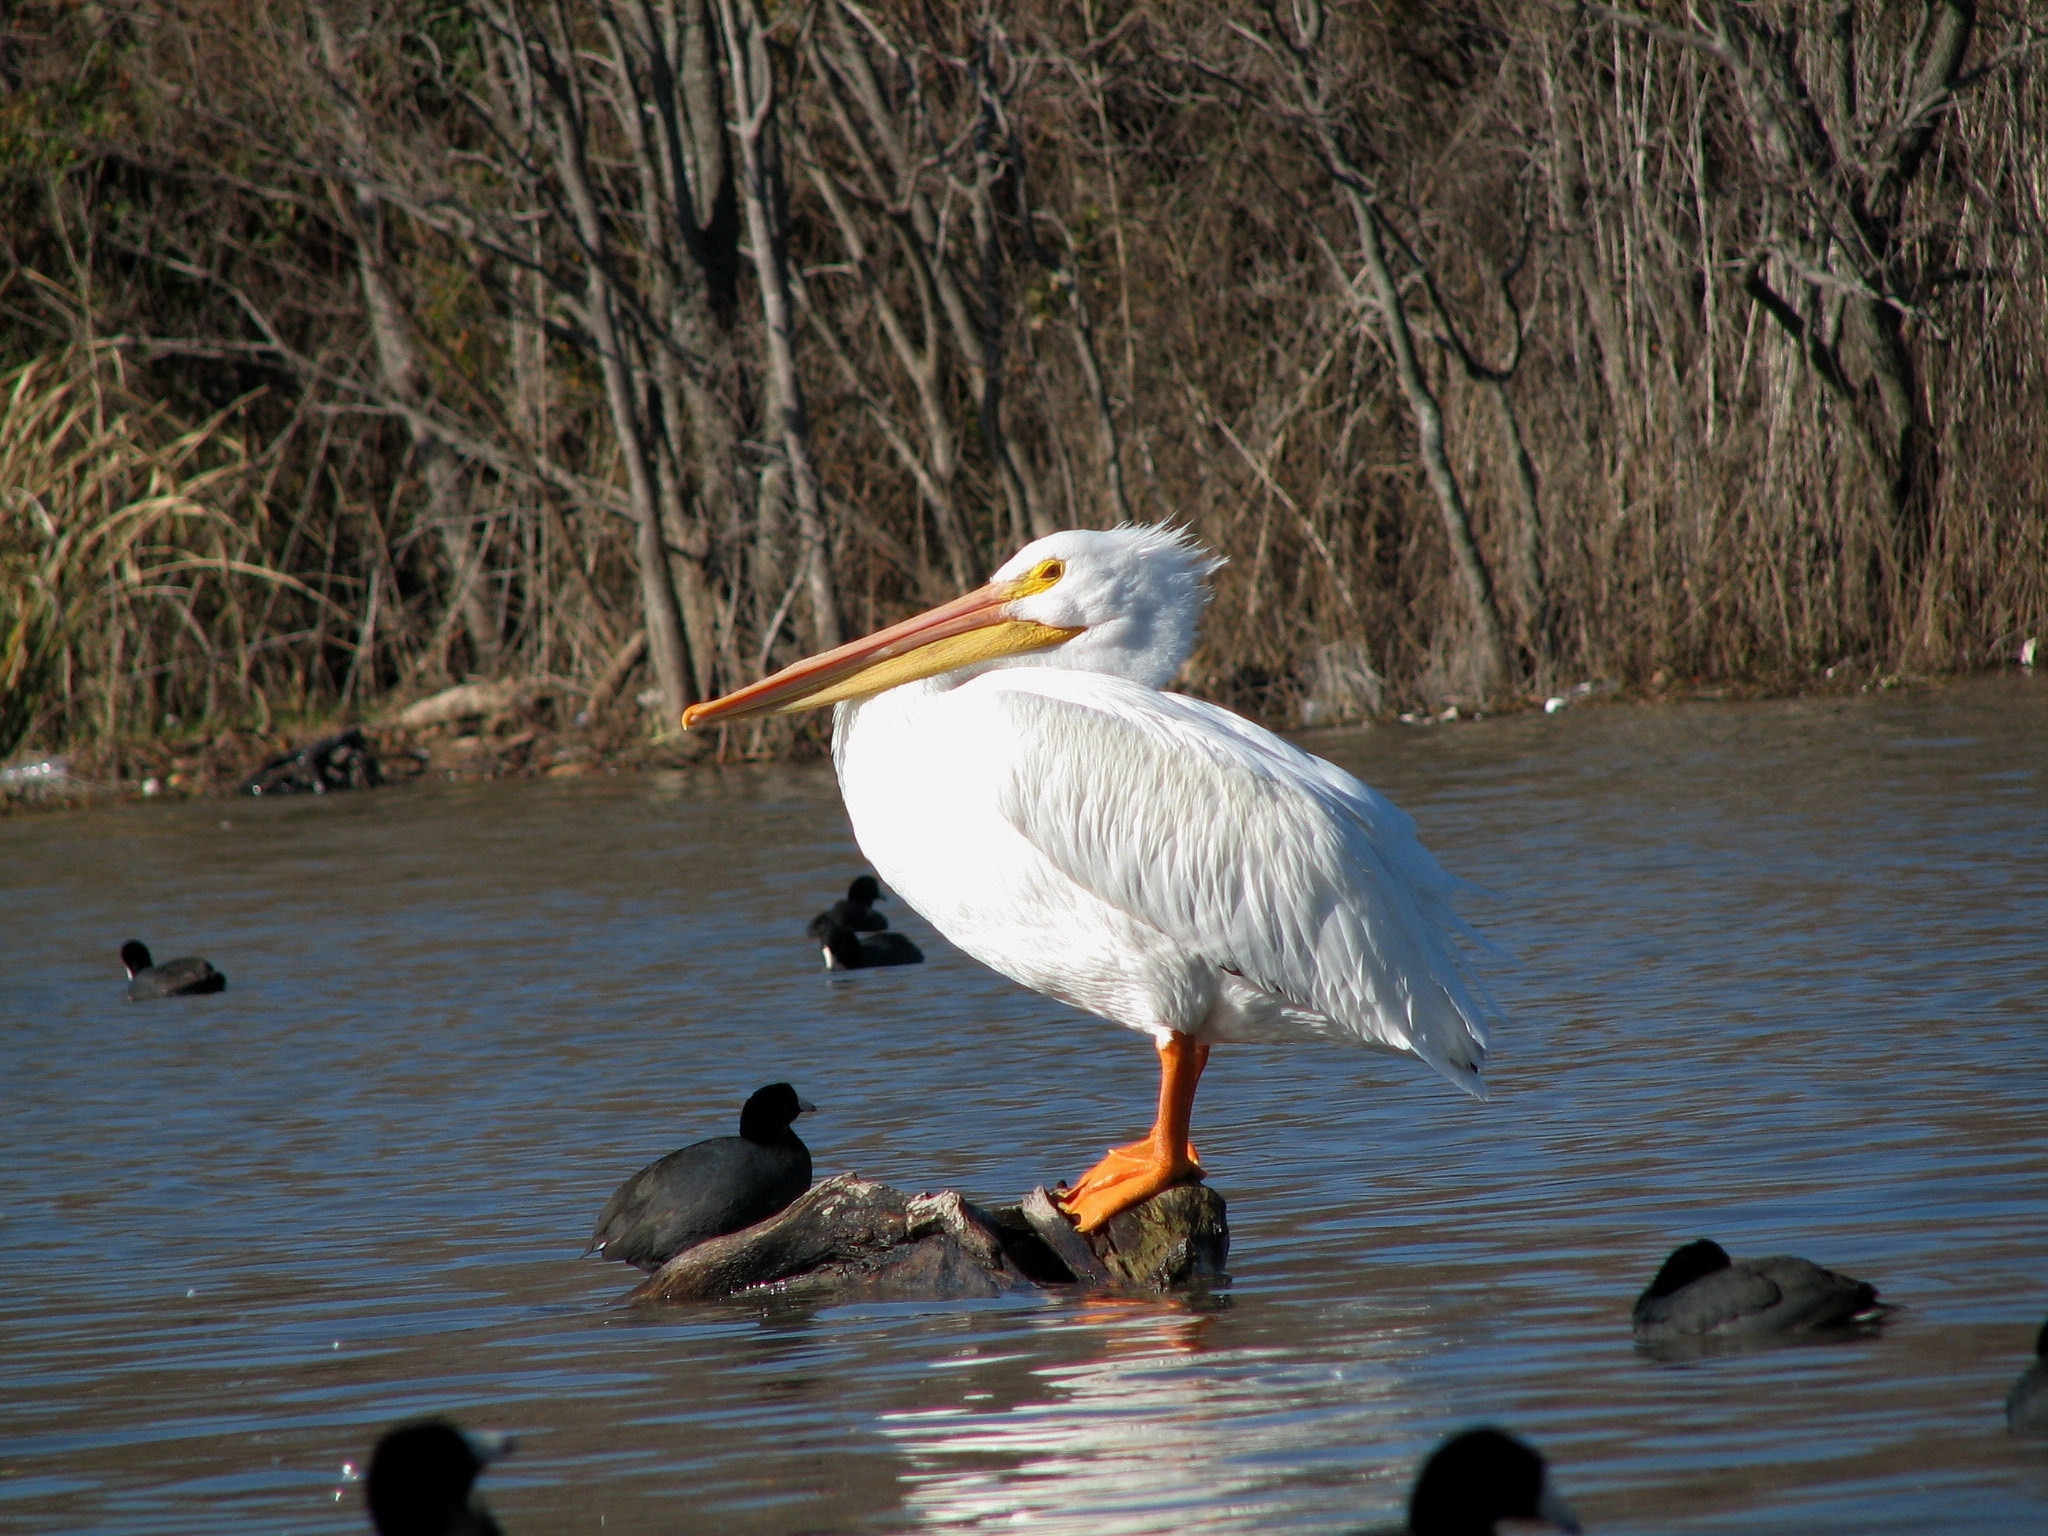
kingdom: Animalia
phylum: Chordata
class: Aves
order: Pelecaniformes
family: Pelecanidae
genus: Pelecanus
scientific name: Pelecanus erythrorhynchos
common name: American white pelican
